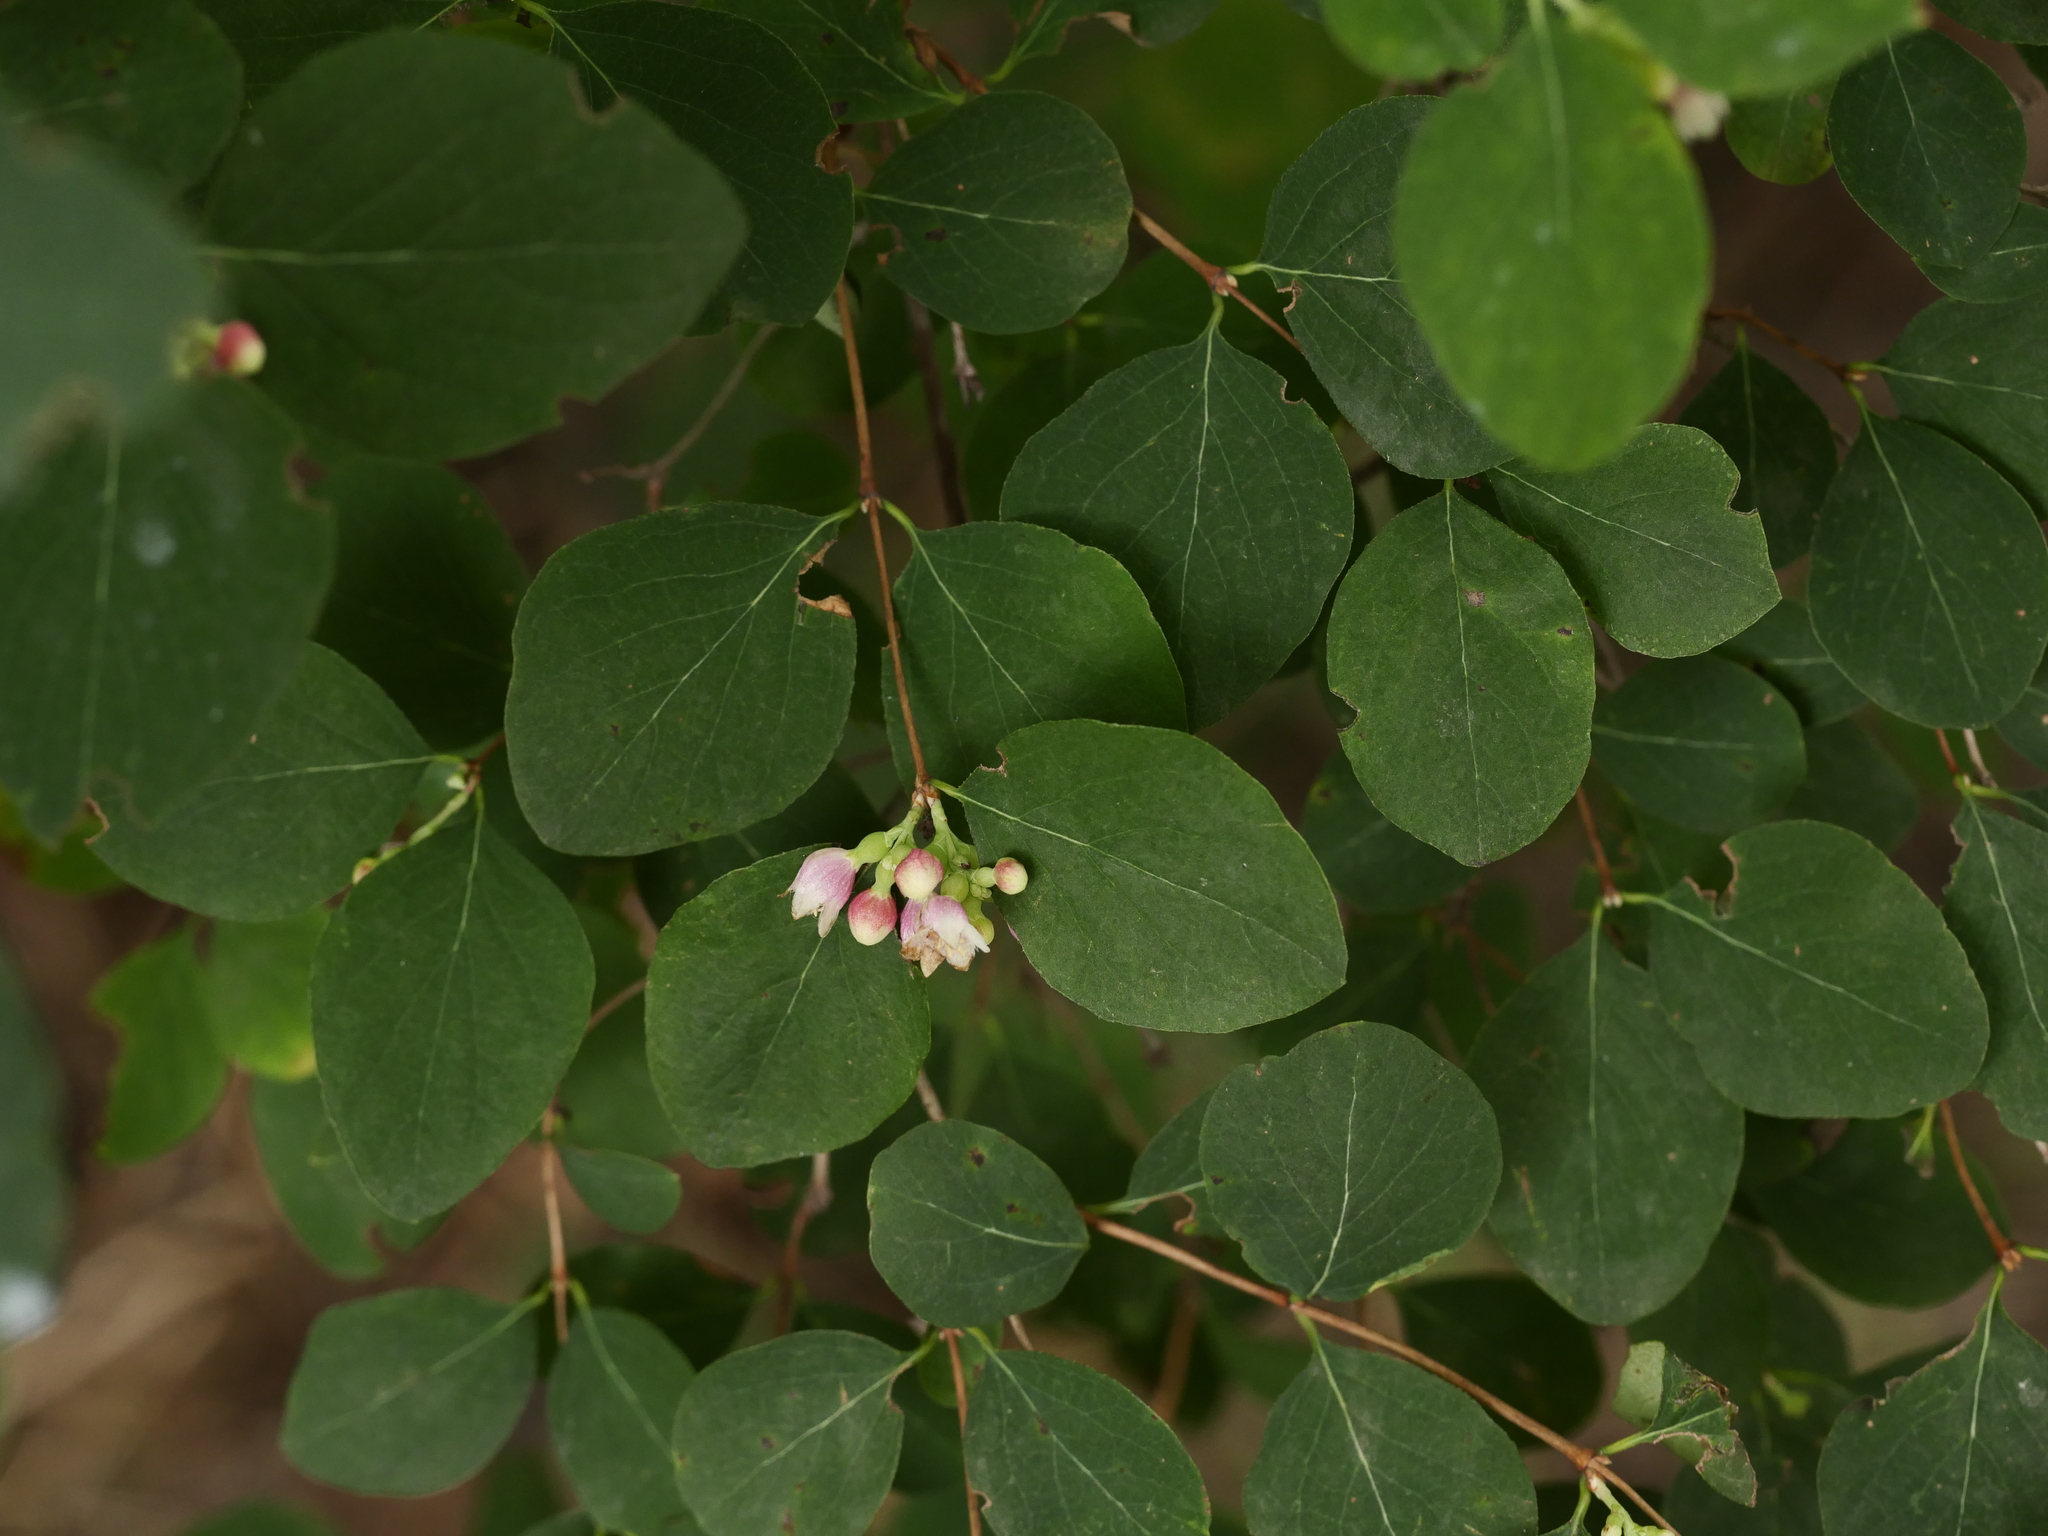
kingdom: Plantae
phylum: Tracheophyta
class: Magnoliopsida
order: Dipsacales
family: Caprifoliaceae
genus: Symphoricarpos
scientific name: Symphoricarpos albus
